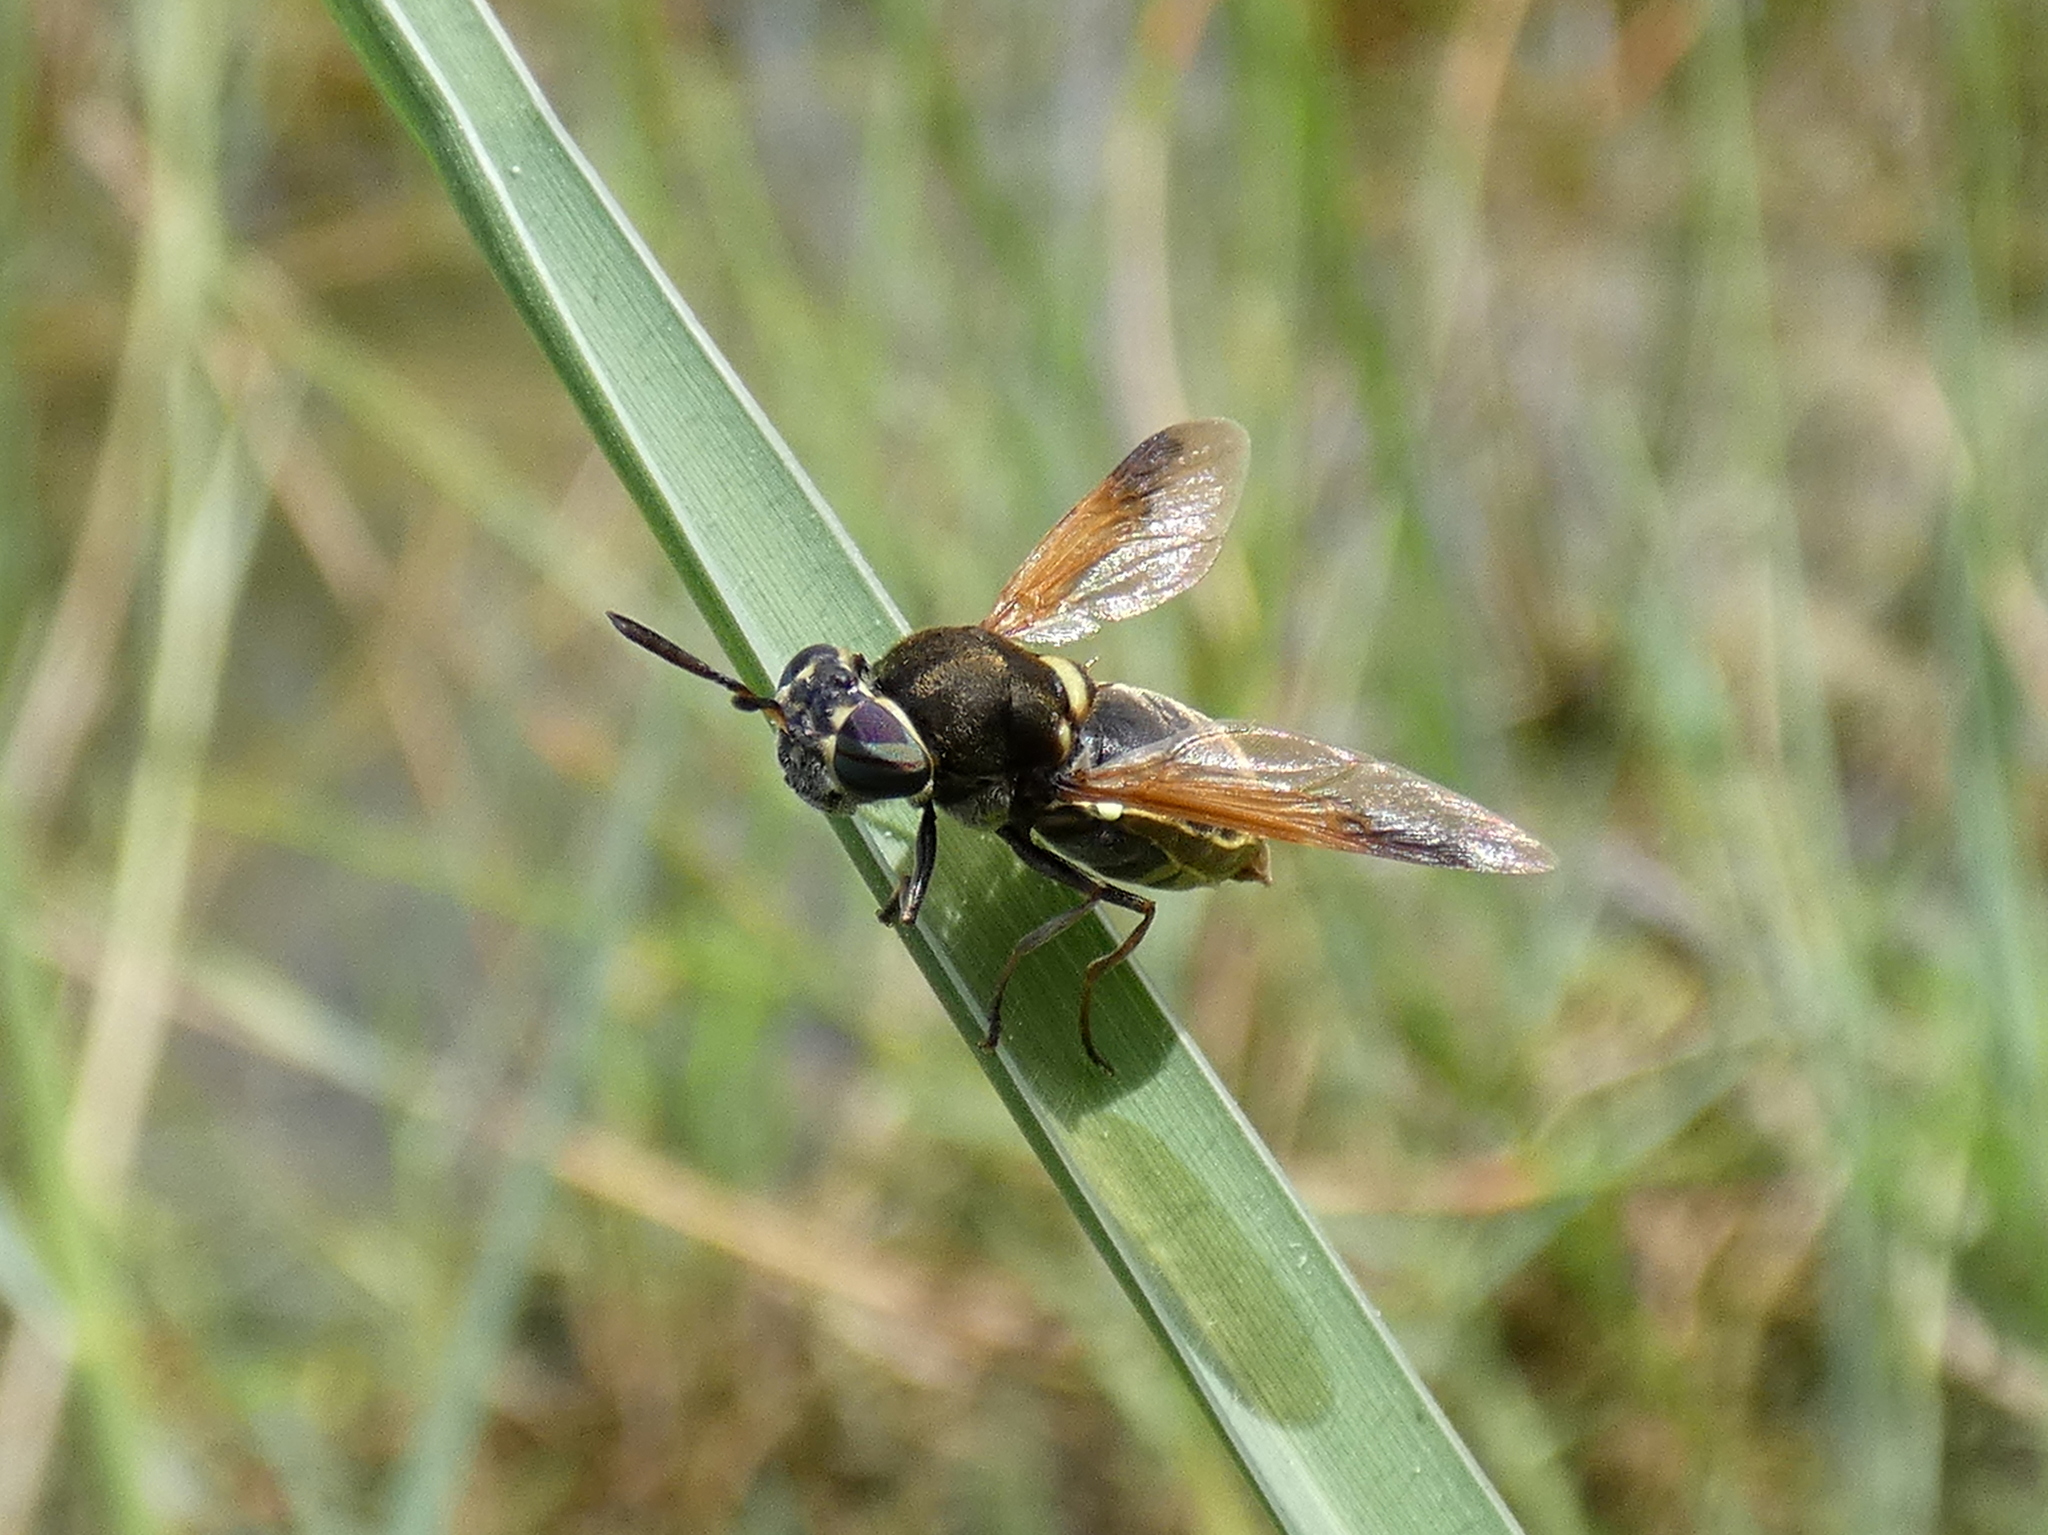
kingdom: Animalia
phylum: Arthropoda
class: Insecta
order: Diptera
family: Stratiomyidae
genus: Hoplitimyia
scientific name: Hoplitimyia mutabilis
